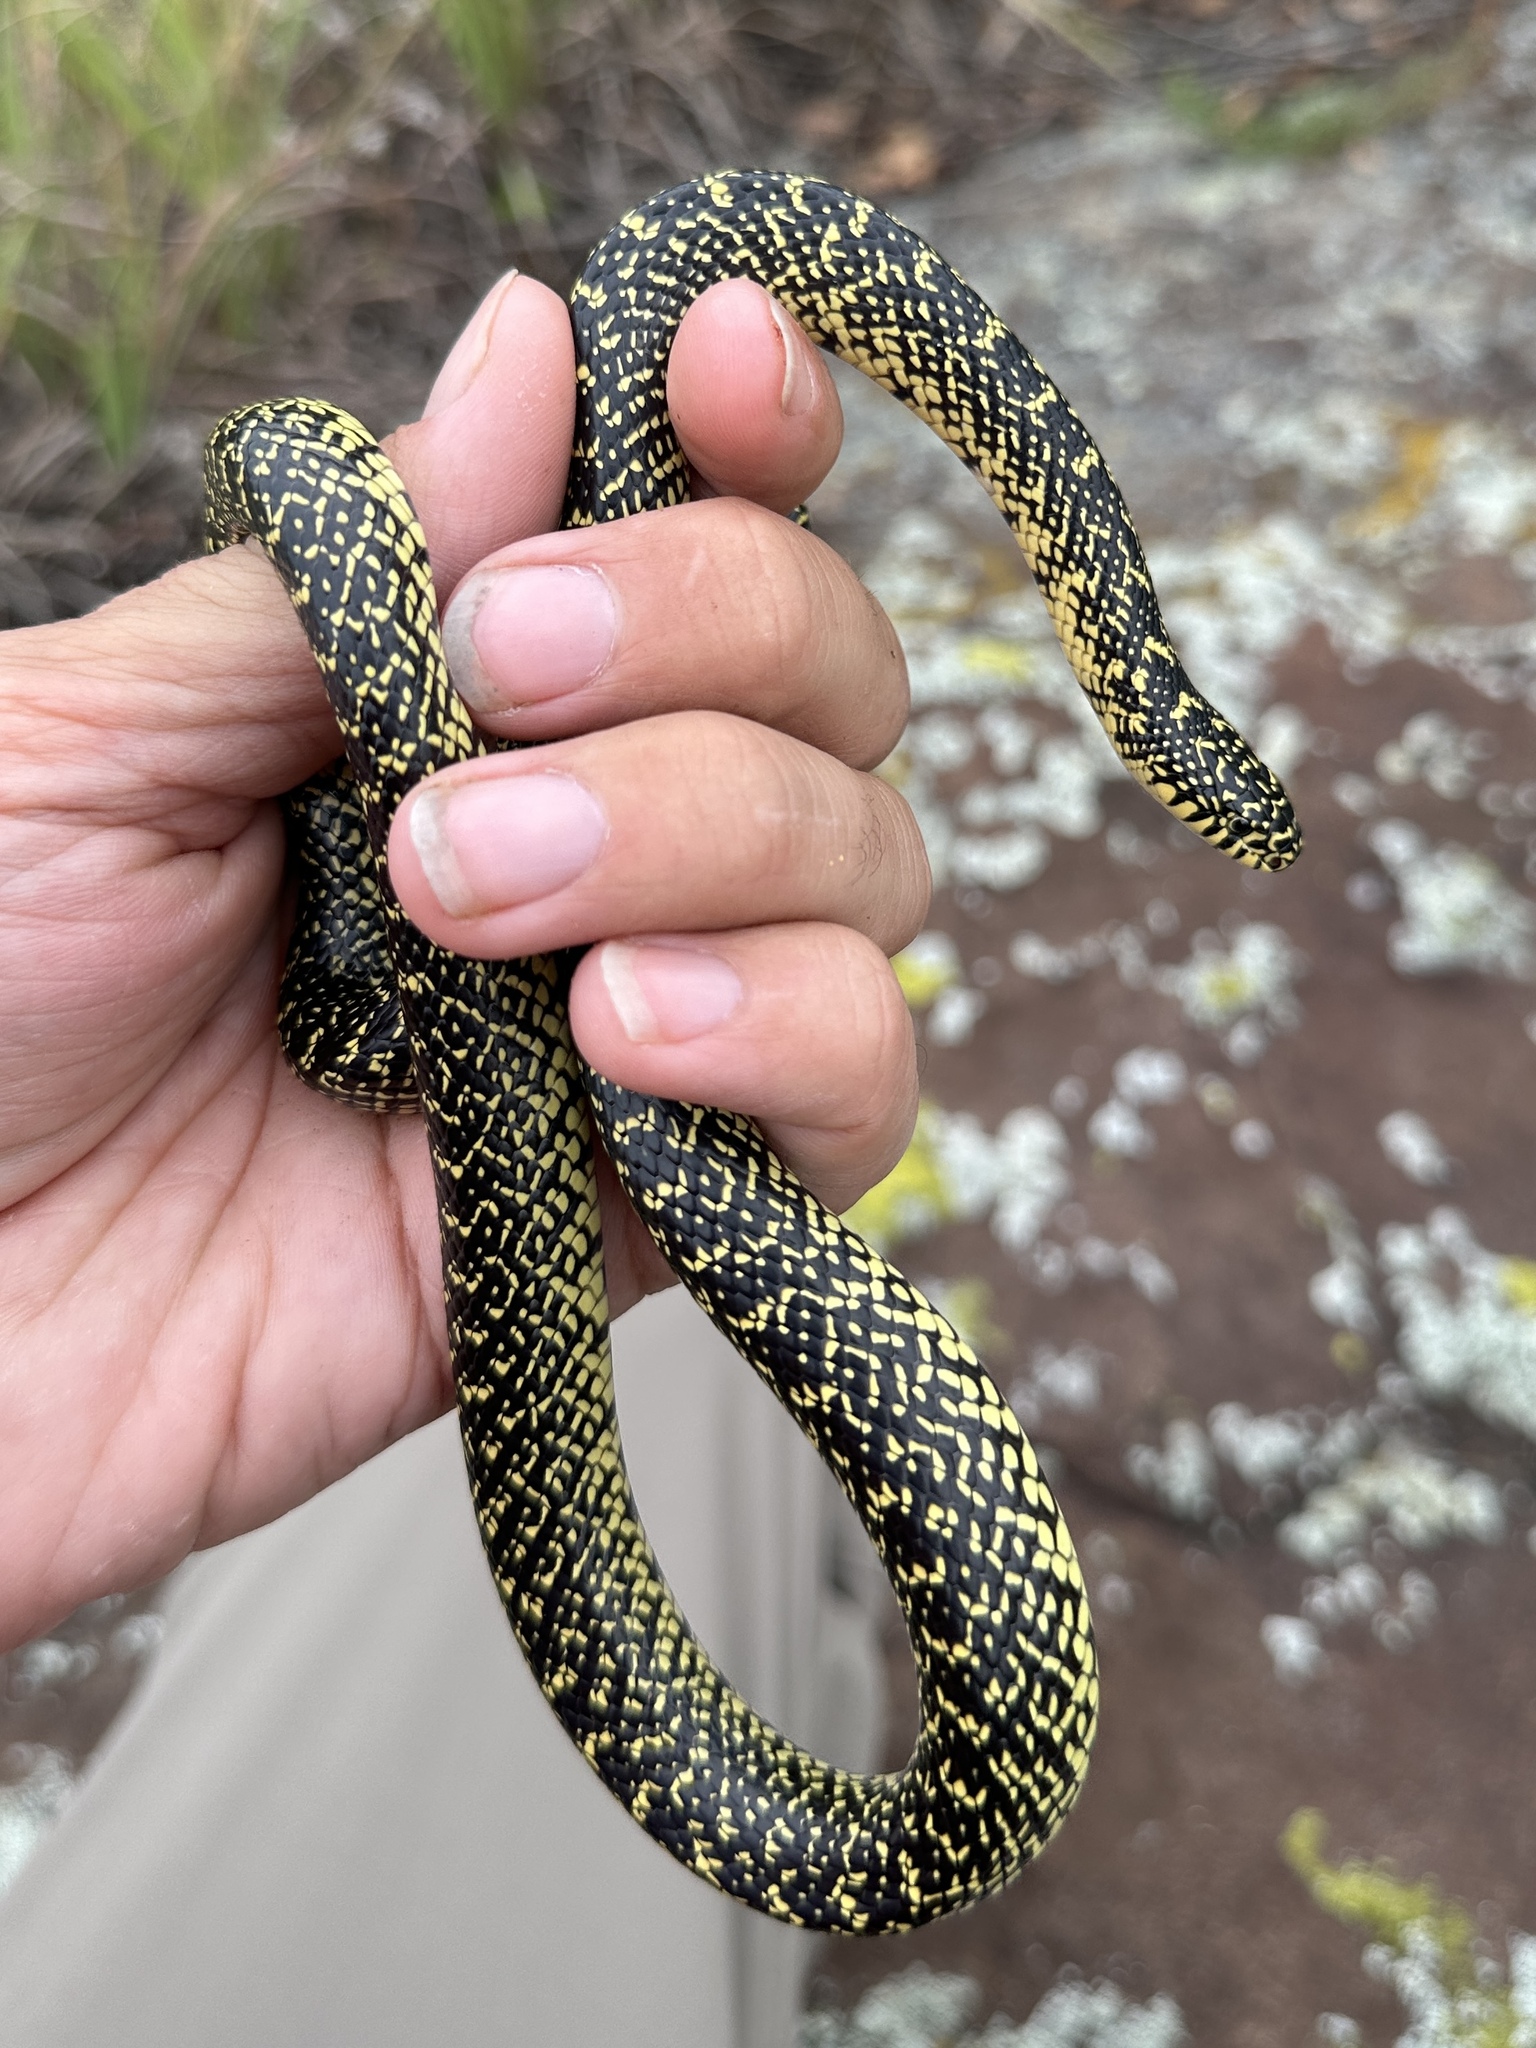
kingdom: Animalia
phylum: Chordata
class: Squamata
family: Colubridae
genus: Lampropeltis
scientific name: Lampropeltis holbrooki
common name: Speckled kingsnake
